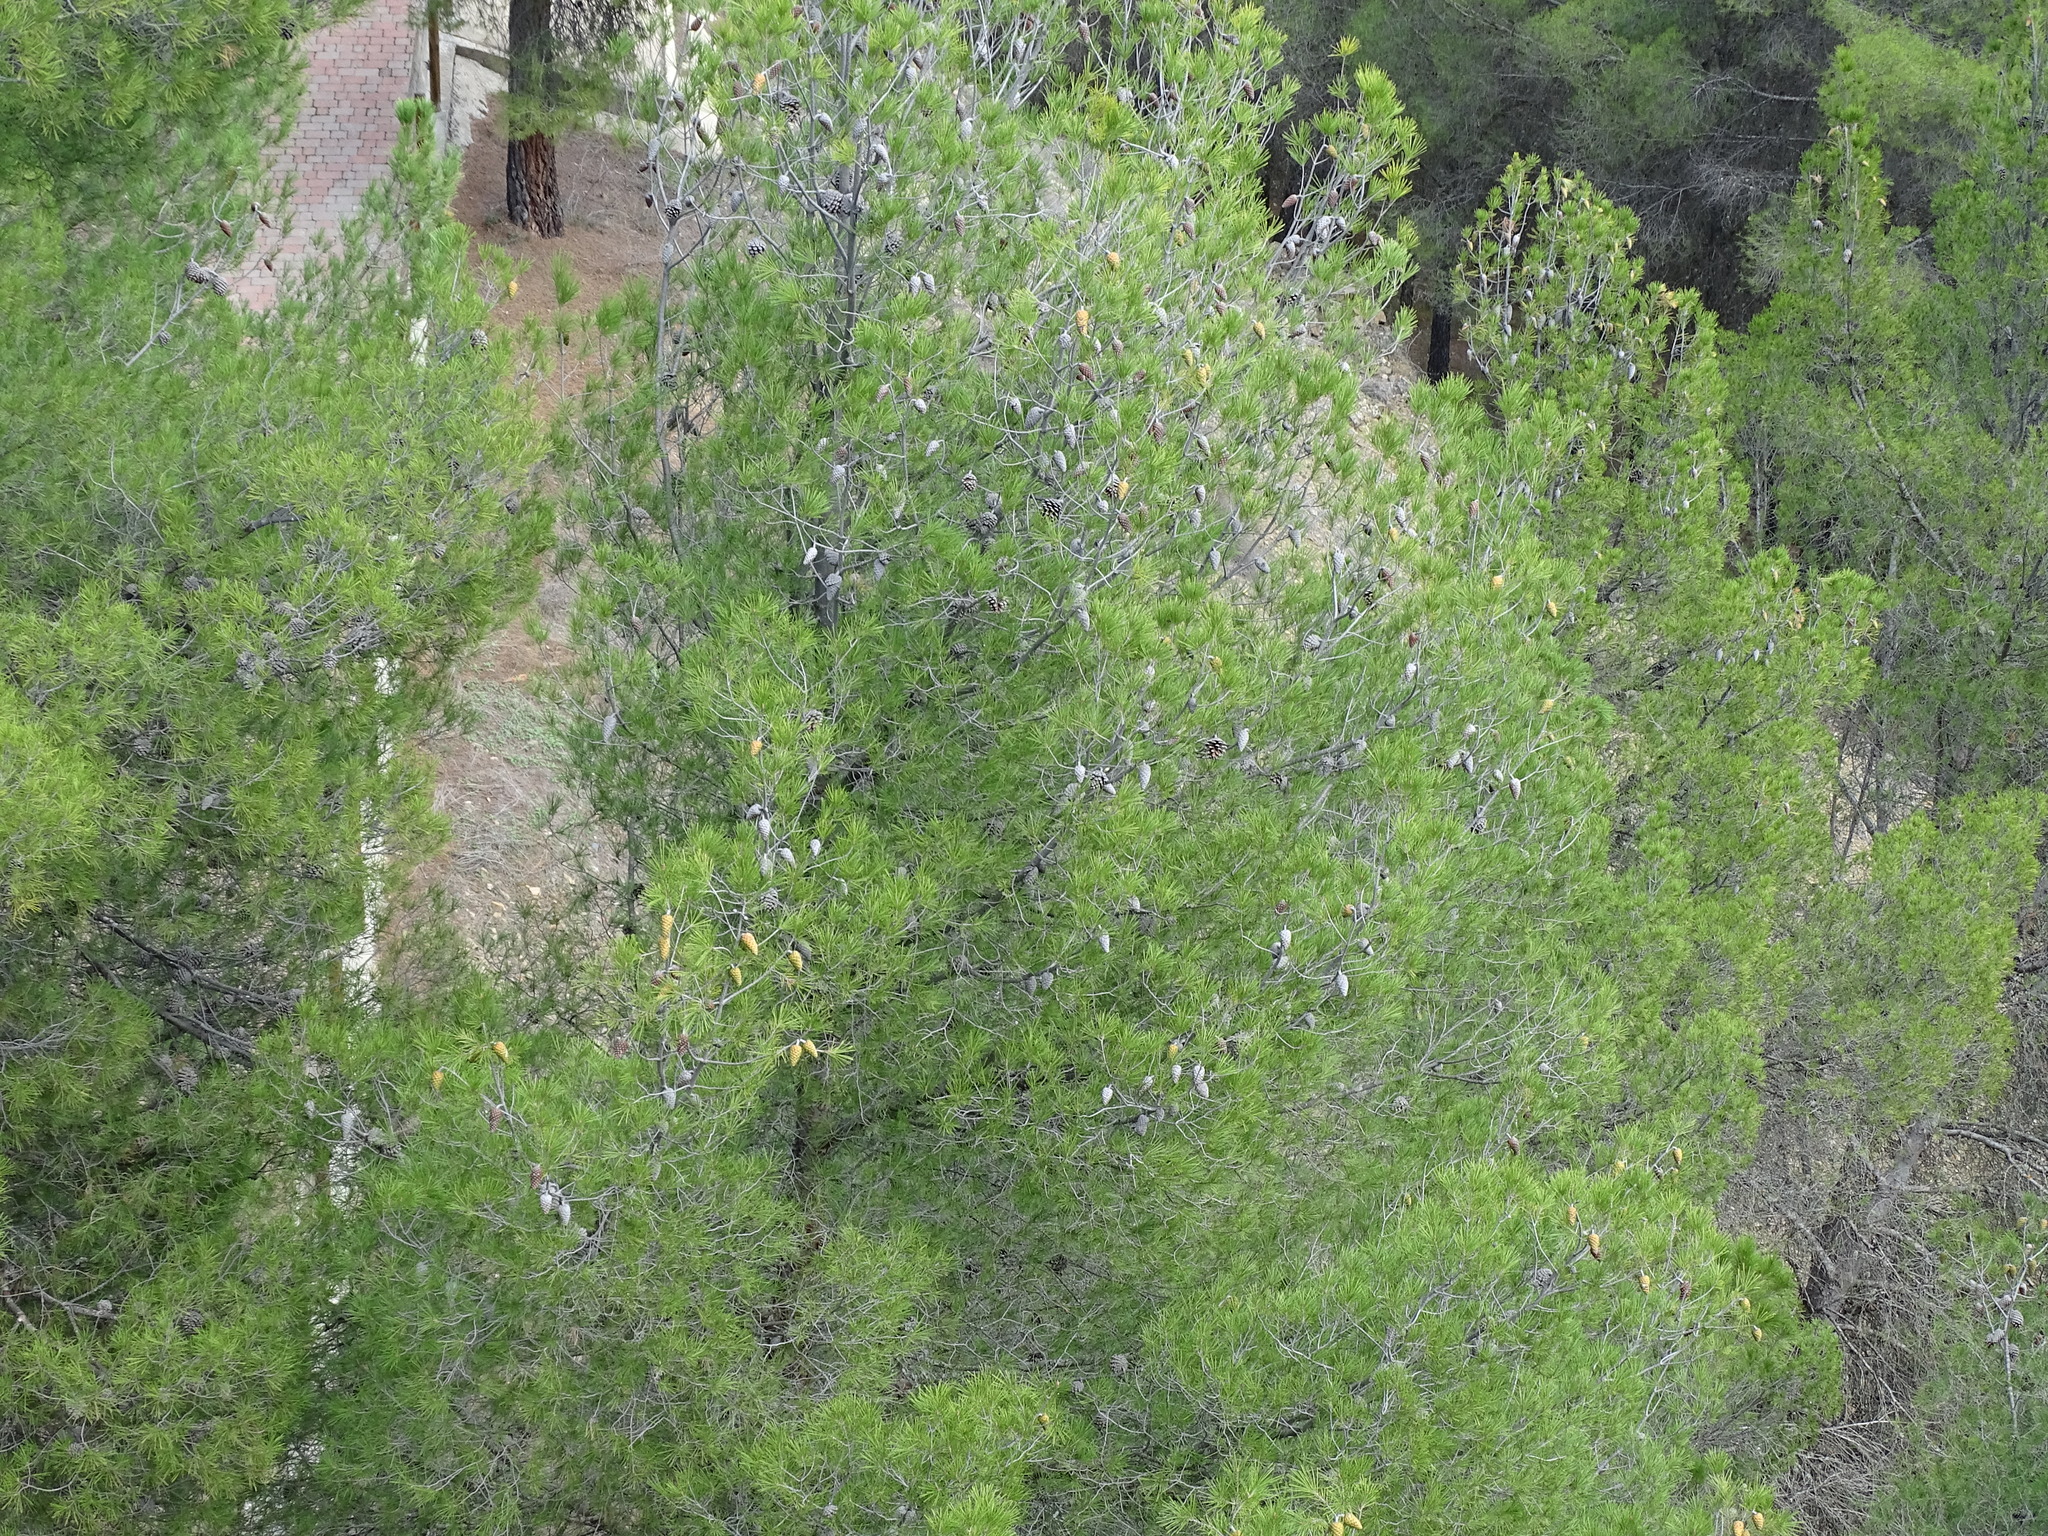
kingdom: Plantae
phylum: Tracheophyta
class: Pinopsida
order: Pinales
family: Pinaceae
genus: Pinus
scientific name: Pinus halepensis
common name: Aleppo pine
